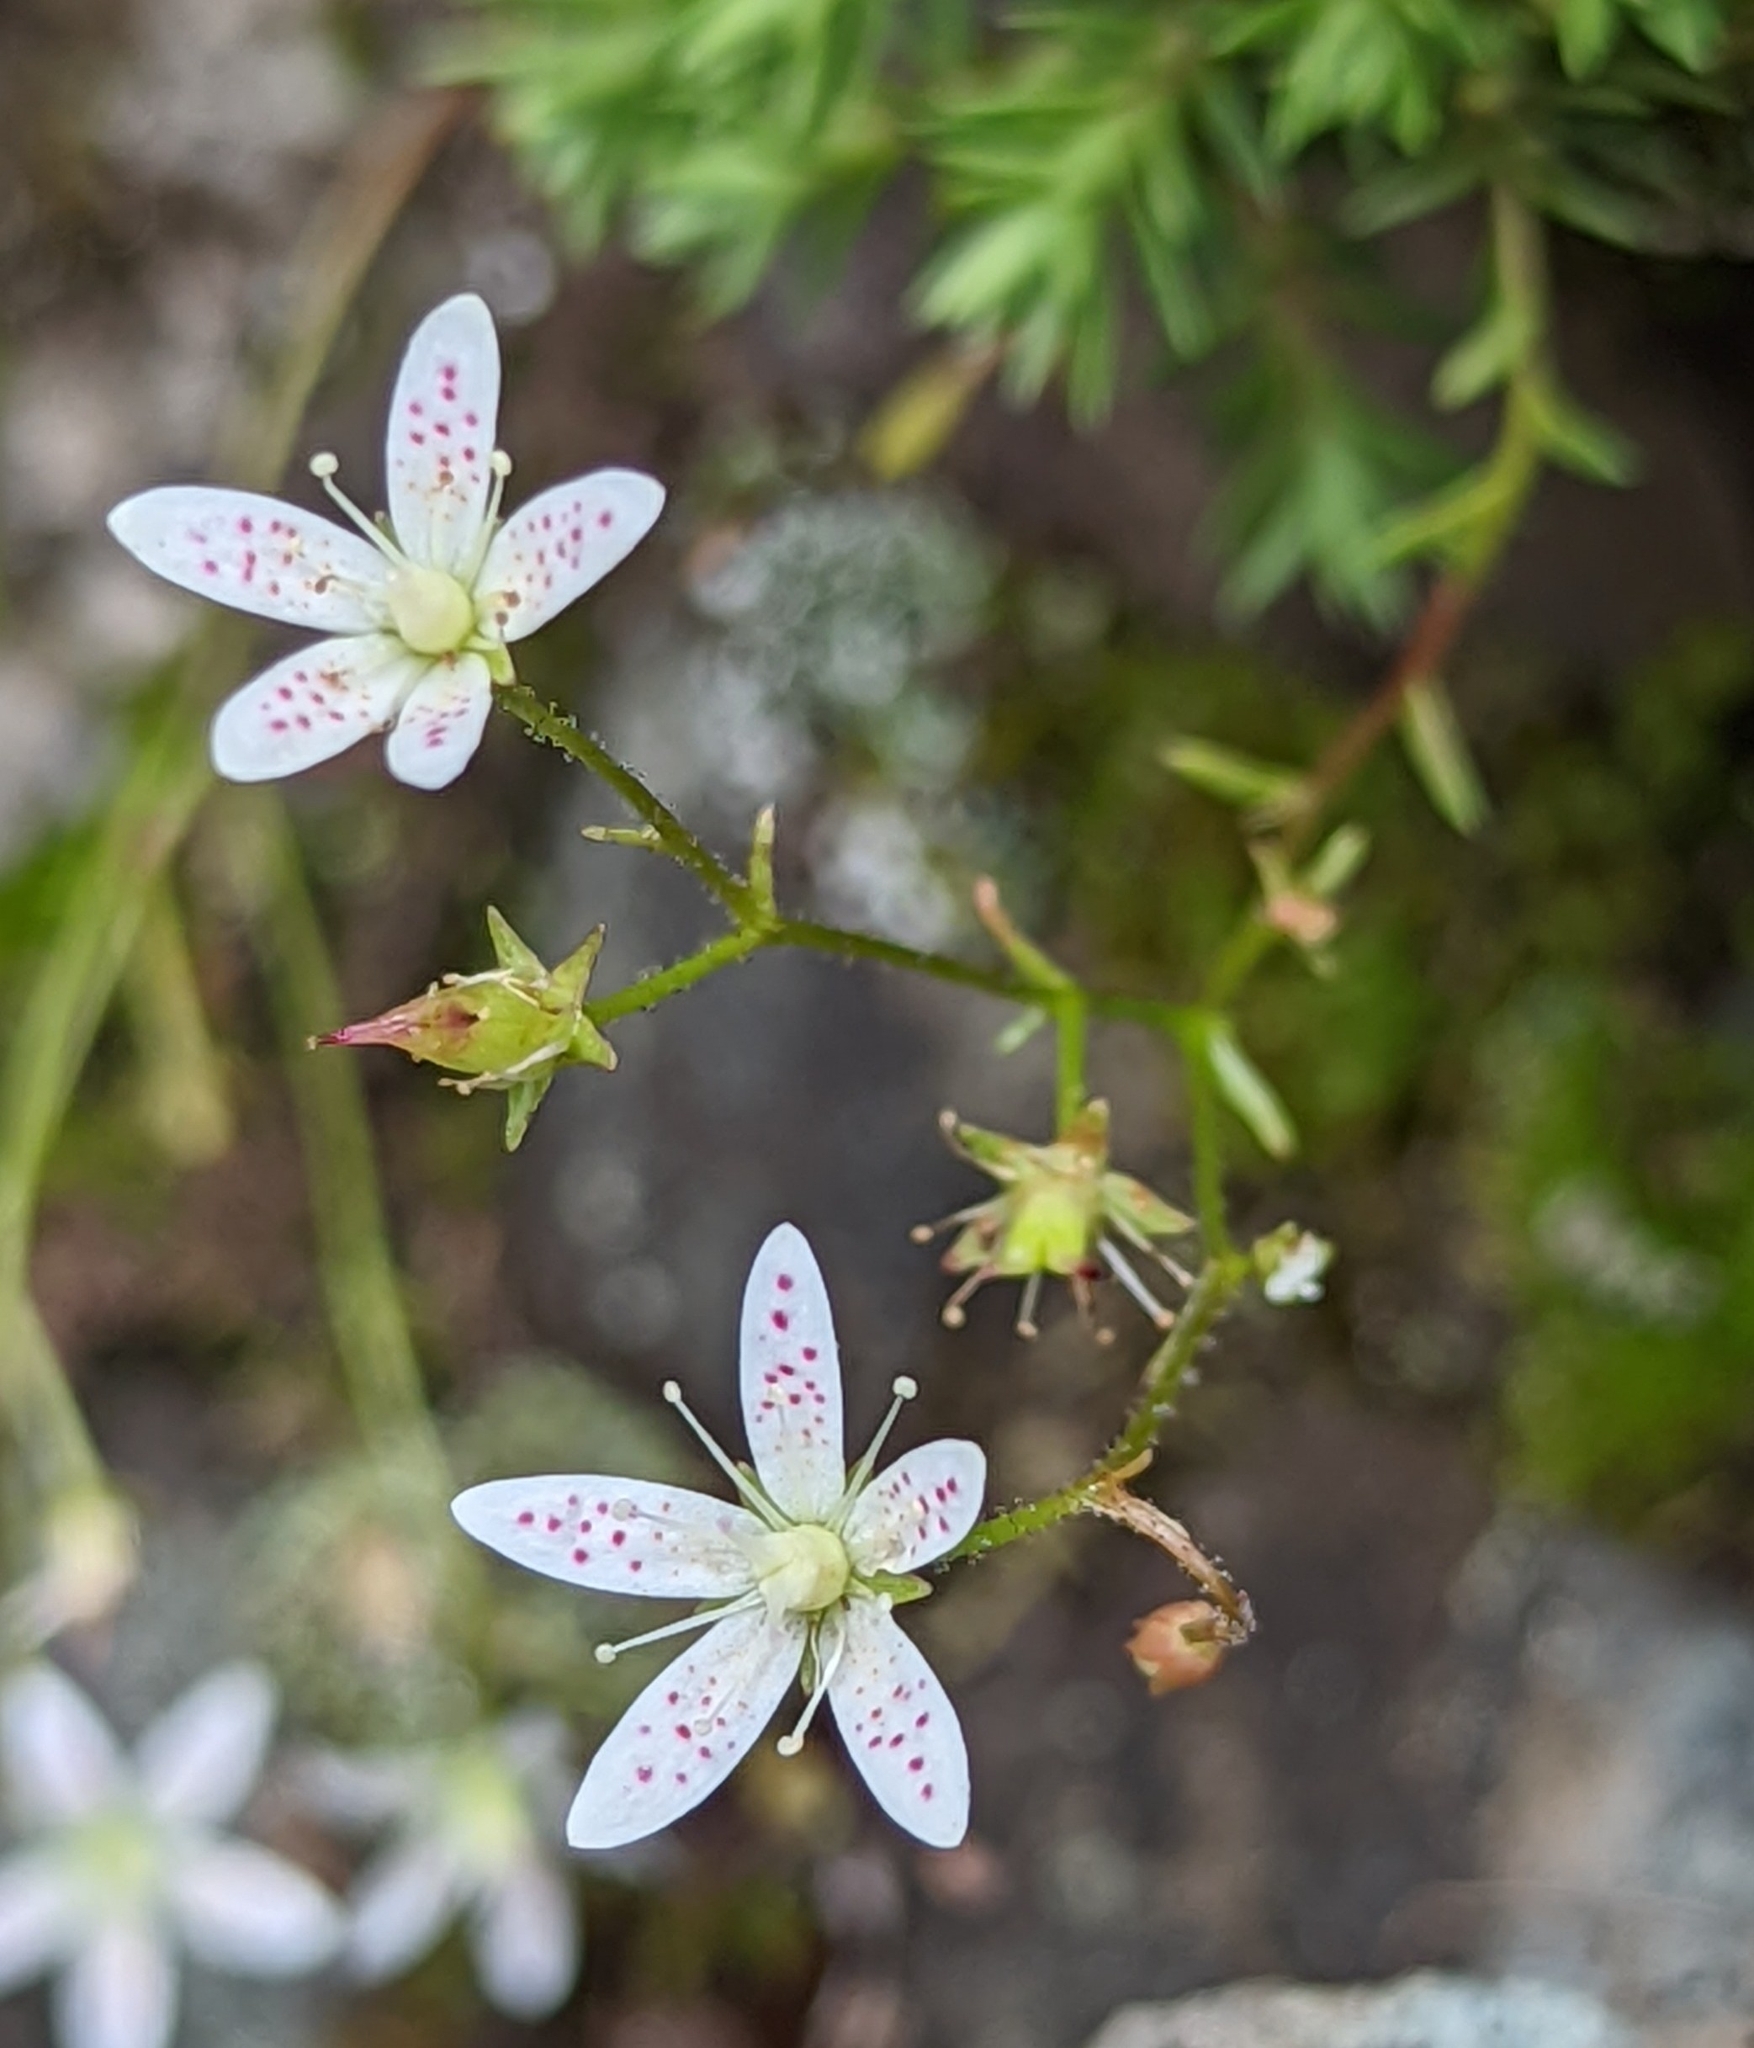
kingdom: Plantae
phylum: Tracheophyta
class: Magnoliopsida
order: Saxifragales
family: Saxifragaceae
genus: Saxifraga
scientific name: Saxifraga bronchialis
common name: Matted saxifrage
